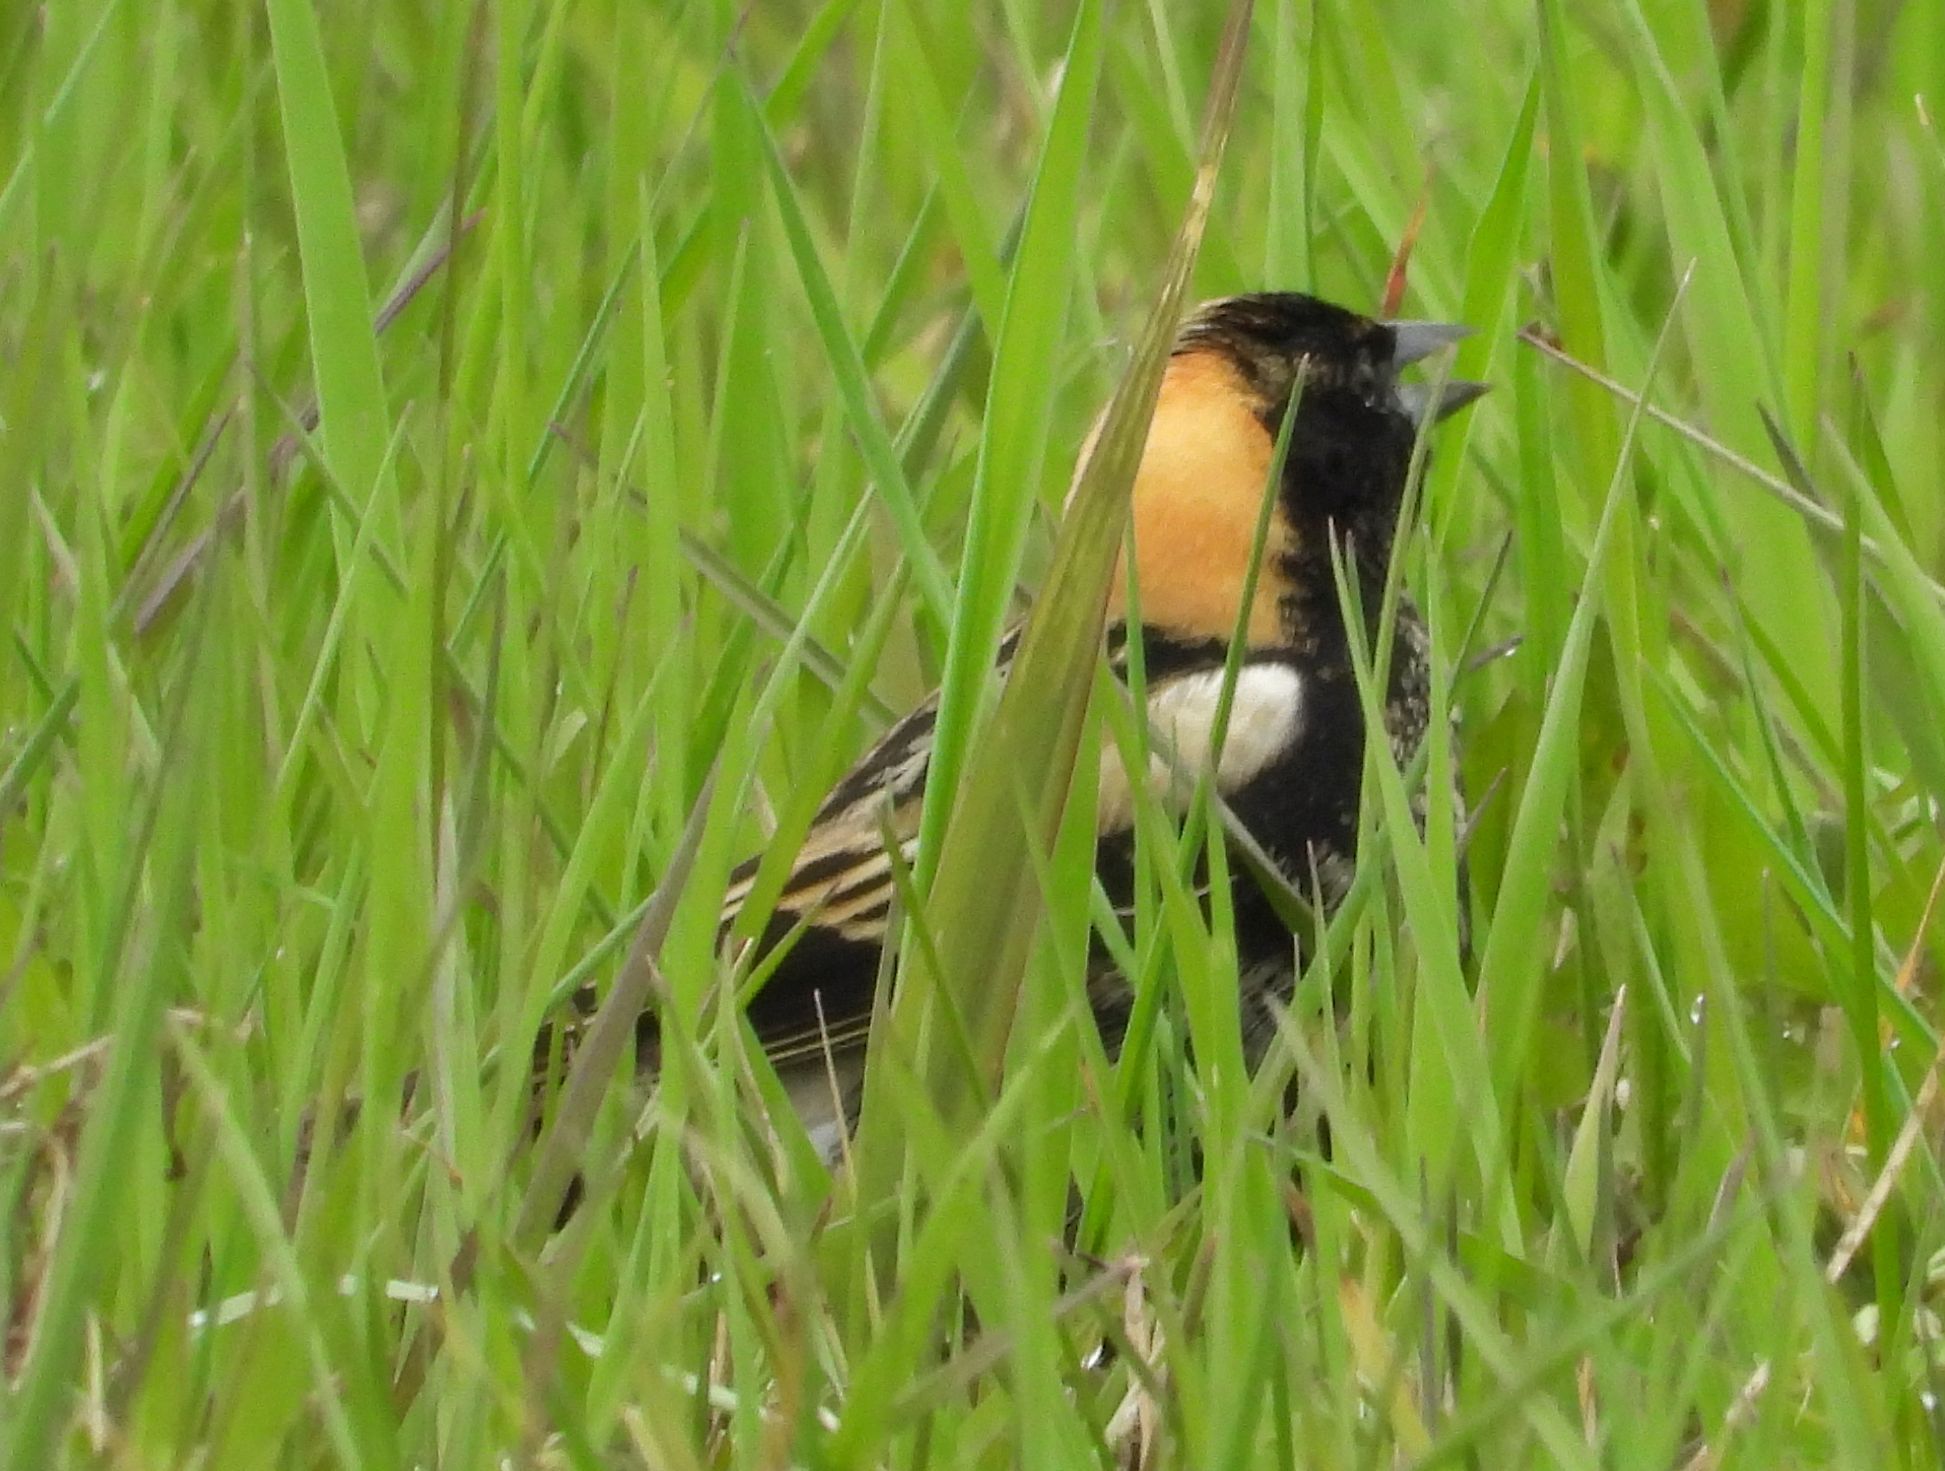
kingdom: Animalia
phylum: Chordata
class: Aves
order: Passeriformes
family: Icteridae
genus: Dolichonyx
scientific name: Dolichonyx oryzivorus
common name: Bobolink
